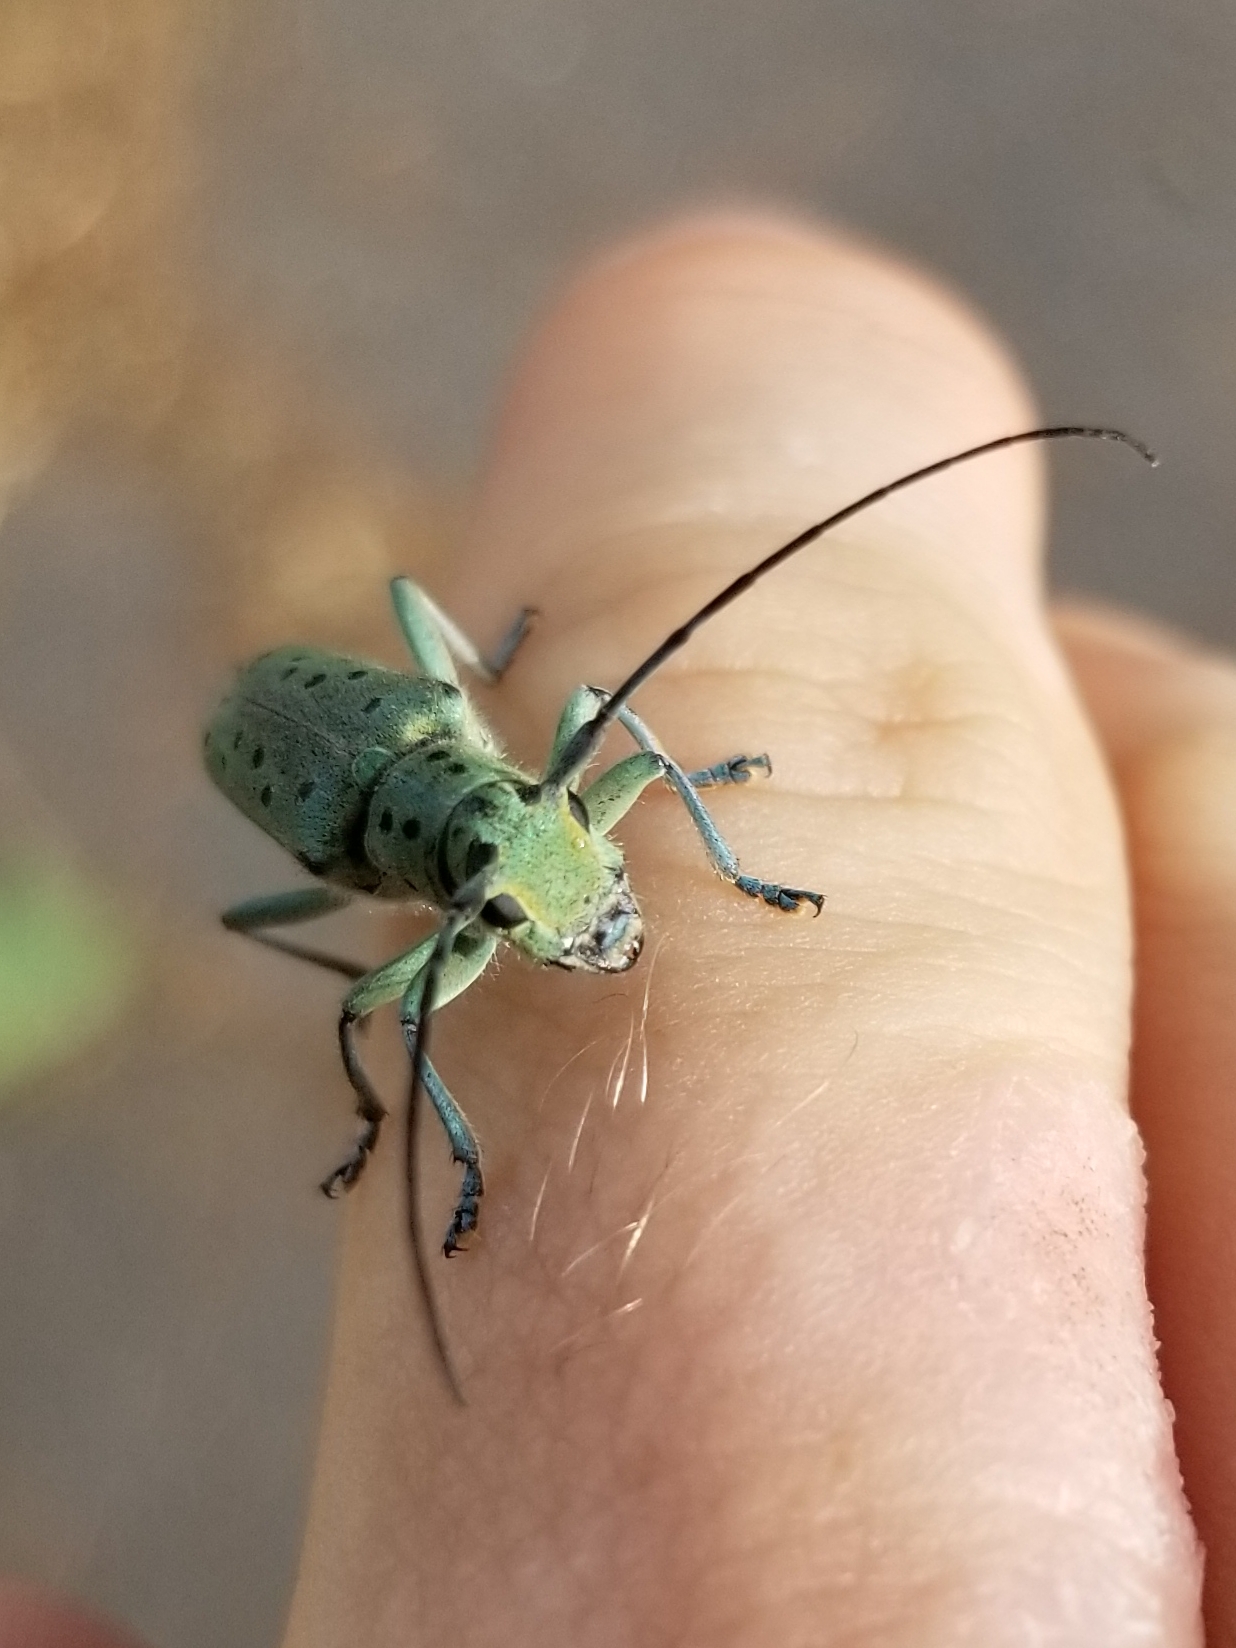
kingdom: Animalia
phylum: Arthropoda
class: Insecta
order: Coleoptera
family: Cerambycidae
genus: Saperda
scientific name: Saperda punctata
